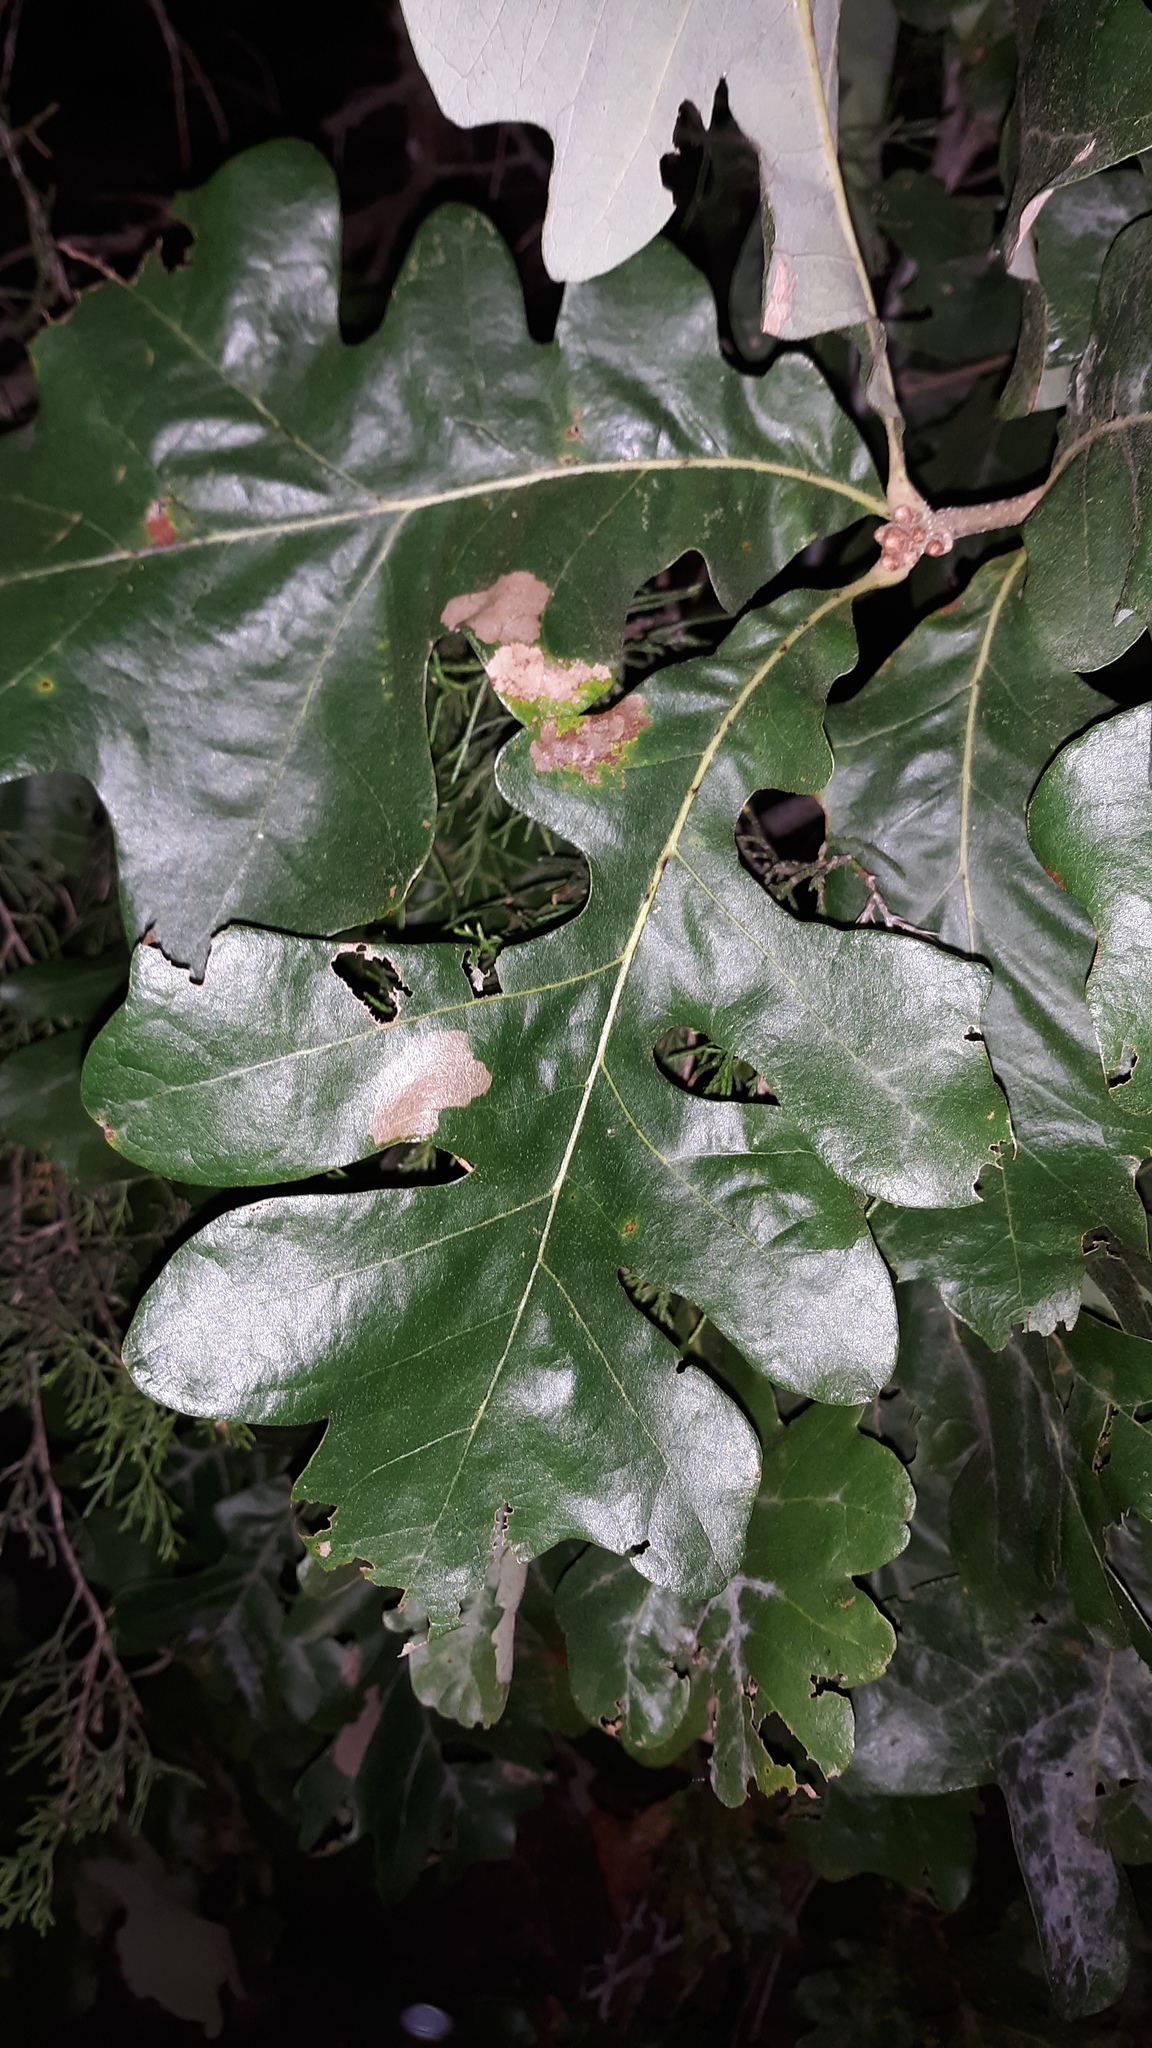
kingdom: Plantae
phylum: Tracheophyta
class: Magnoliopsida
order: Fagales
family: Fagaceae
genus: Quercus
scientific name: Quercus stellata
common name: Post oak
